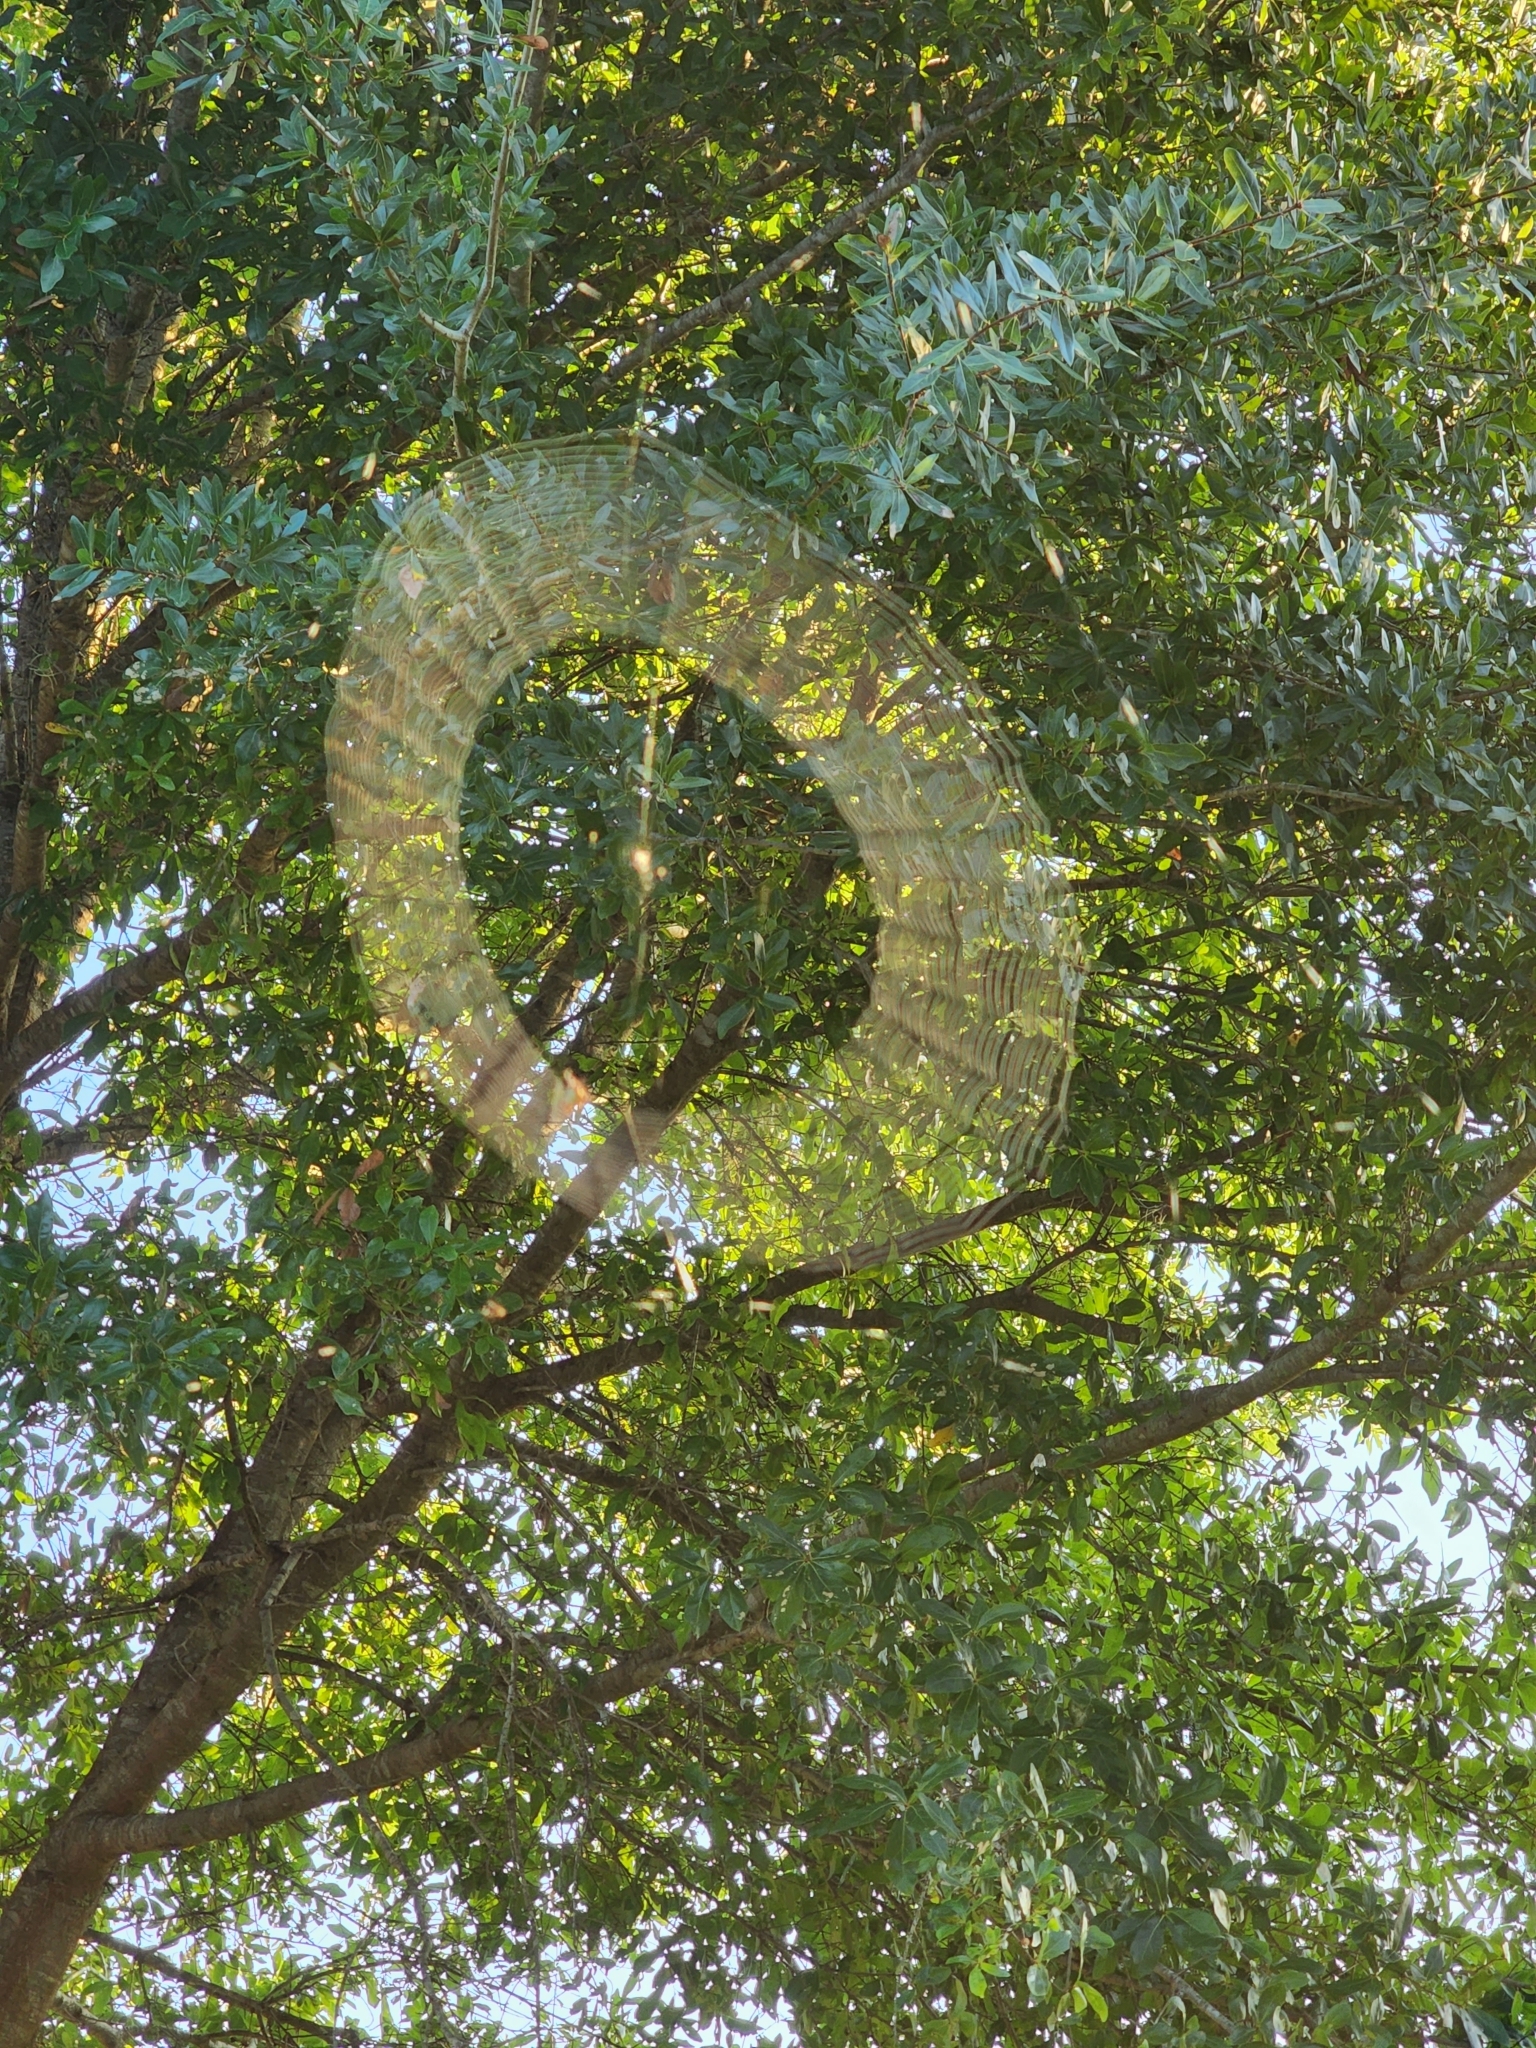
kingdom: Animalia
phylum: Arthropoda
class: Arachnida
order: Araneae
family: Araneidae
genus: Gasteracantha
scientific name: Gasteracantha cancriformis
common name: Orb weavers
